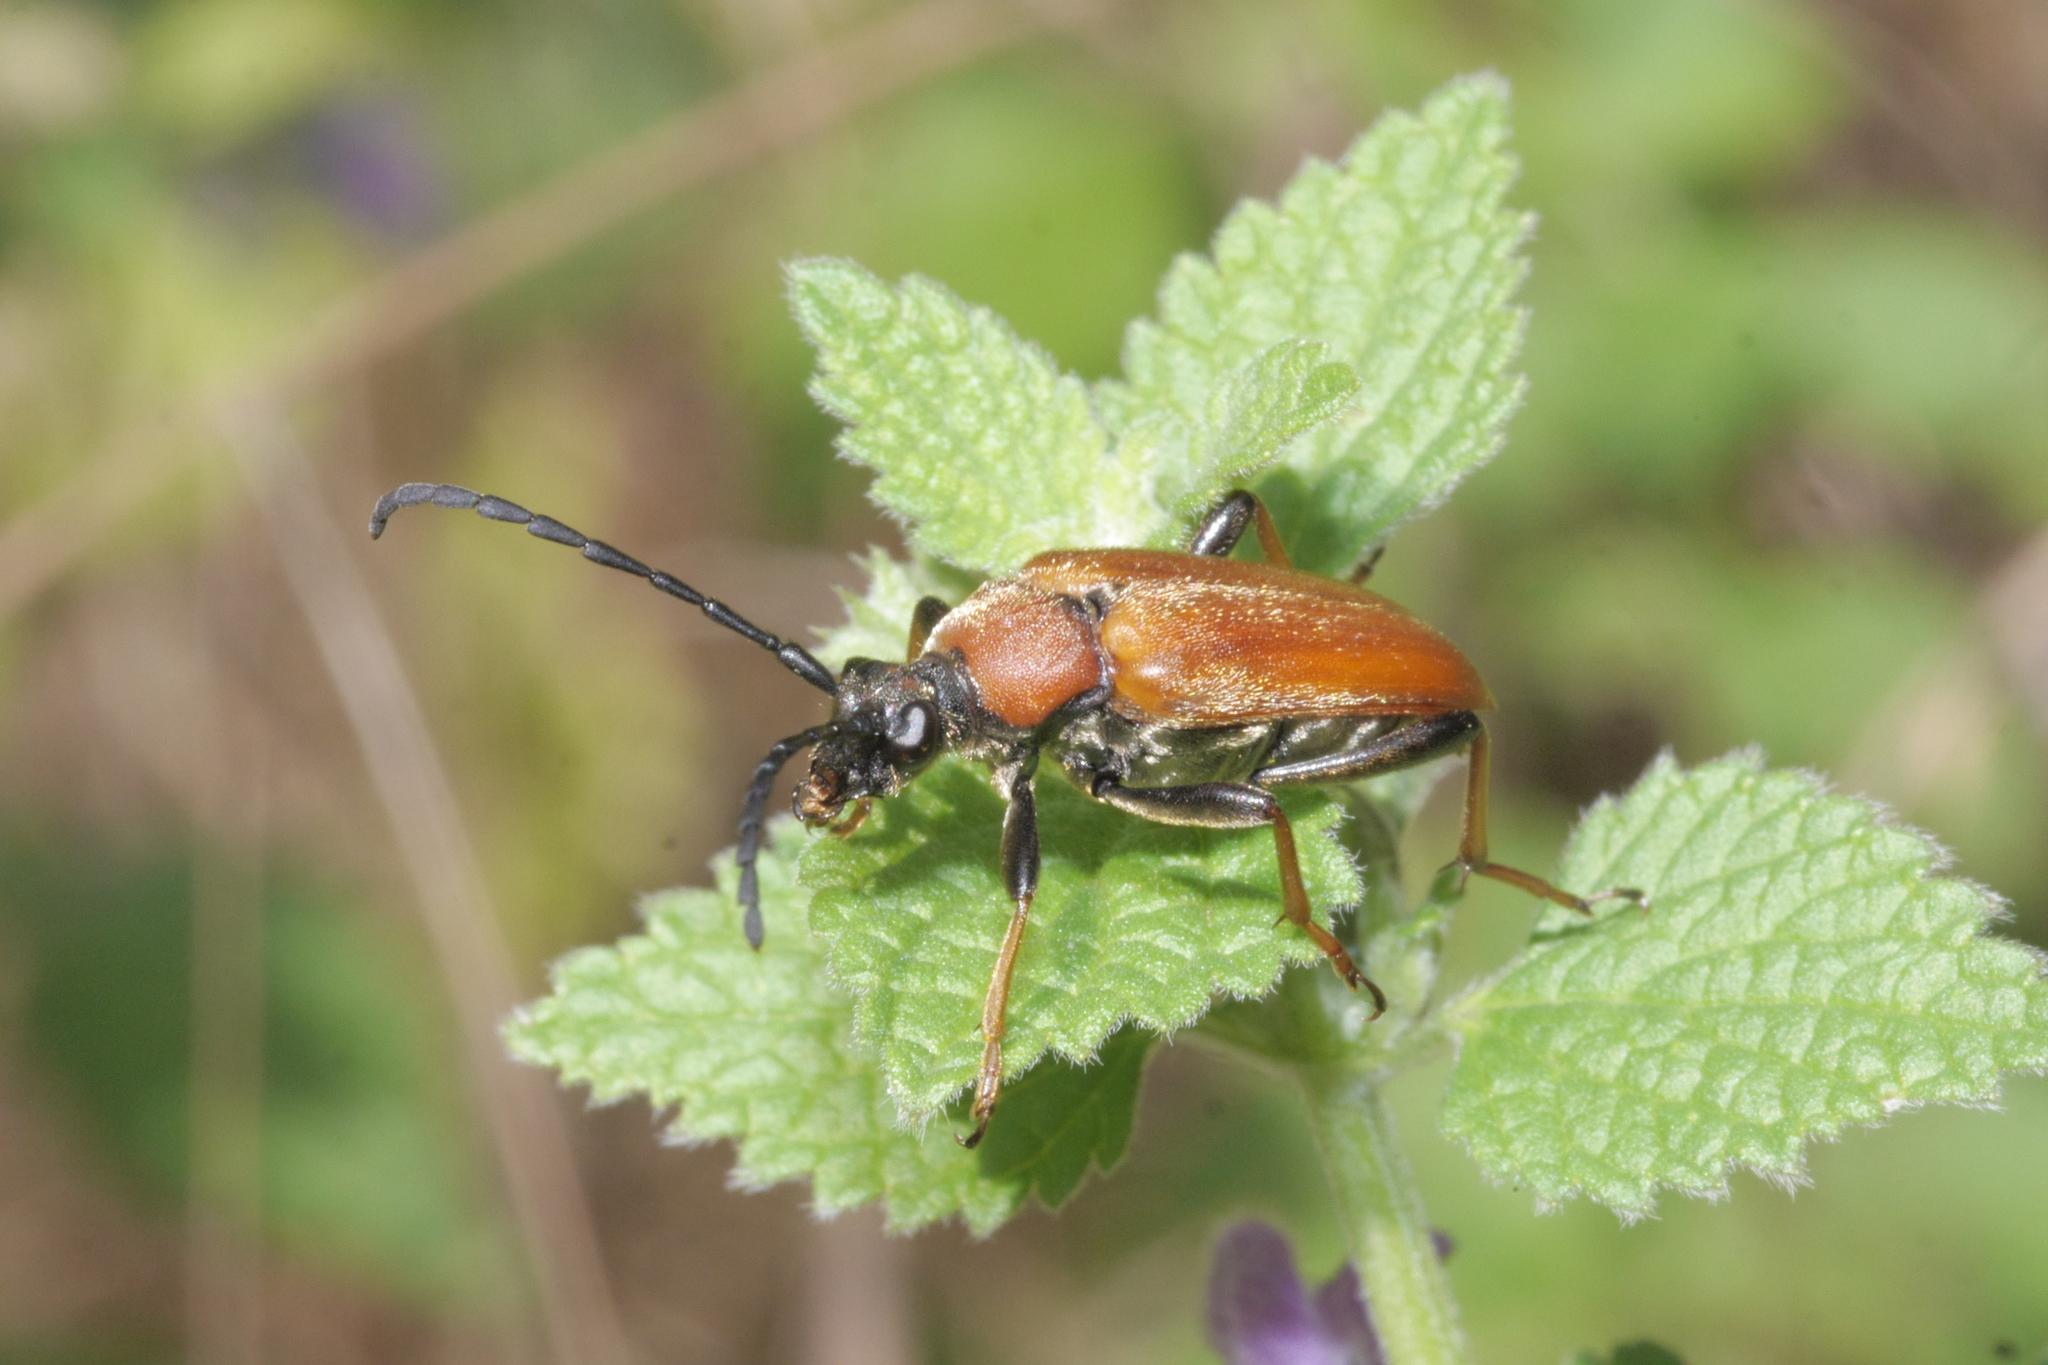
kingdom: Animalia
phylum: Arthropoda
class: Insecta
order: Coleoptera
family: Cerambycidae
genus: Stictoleptura
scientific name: Stictoleptura rubra
